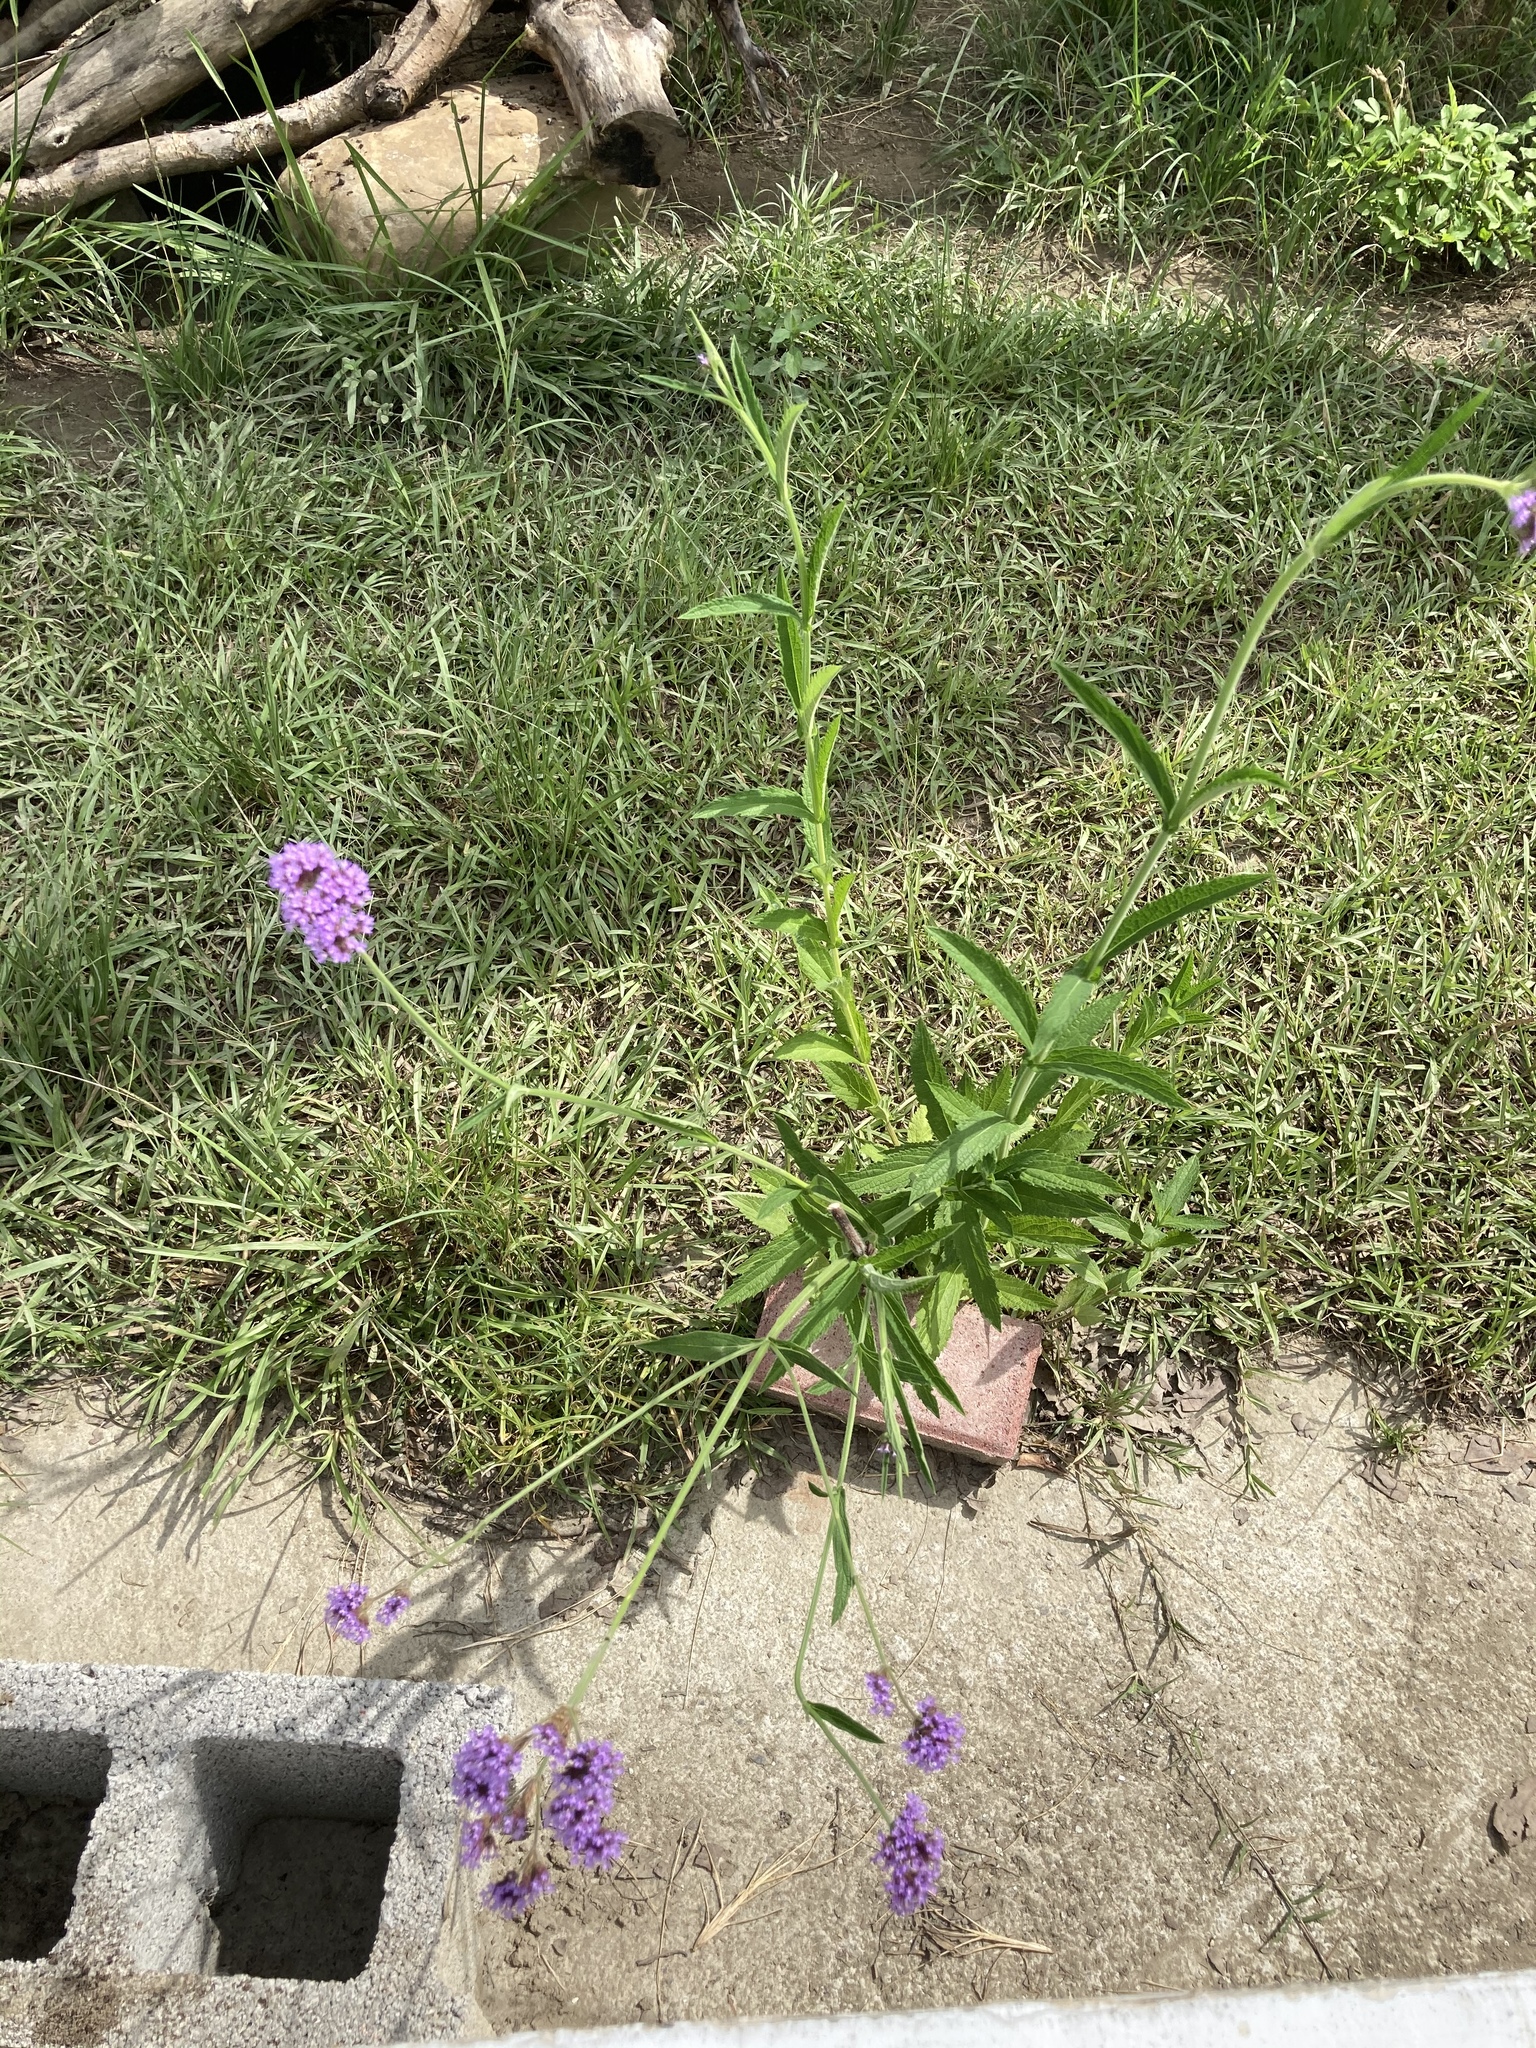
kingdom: Plantae
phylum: Tracheophyta
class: Magnoliopsida
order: Lamiales
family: Verbenaceae
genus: Verbena
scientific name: Verbena bonariensis
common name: Purpletop vervain
